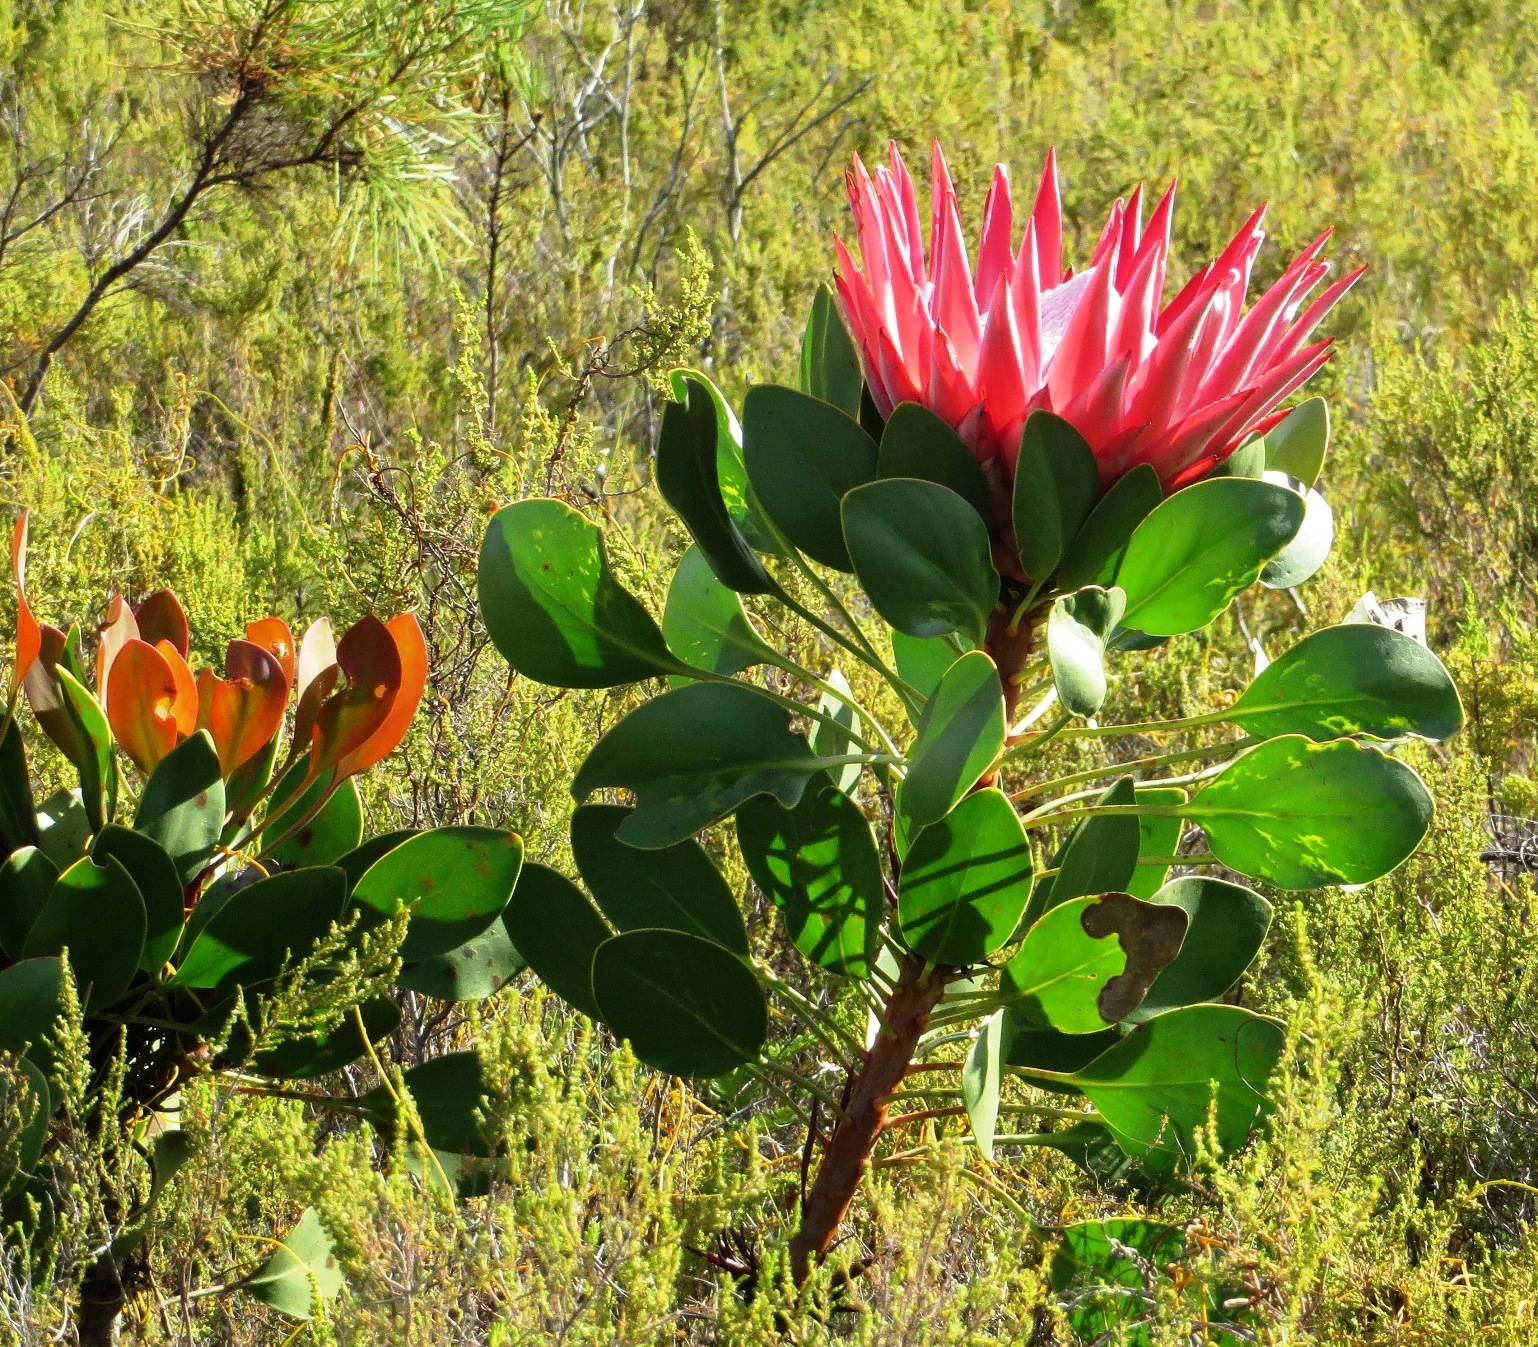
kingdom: Plantae
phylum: Tracheophyta
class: Magnoliopsida
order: Proteales
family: Proteaceae
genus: Protea
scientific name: Protea cynaroides
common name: King protea
